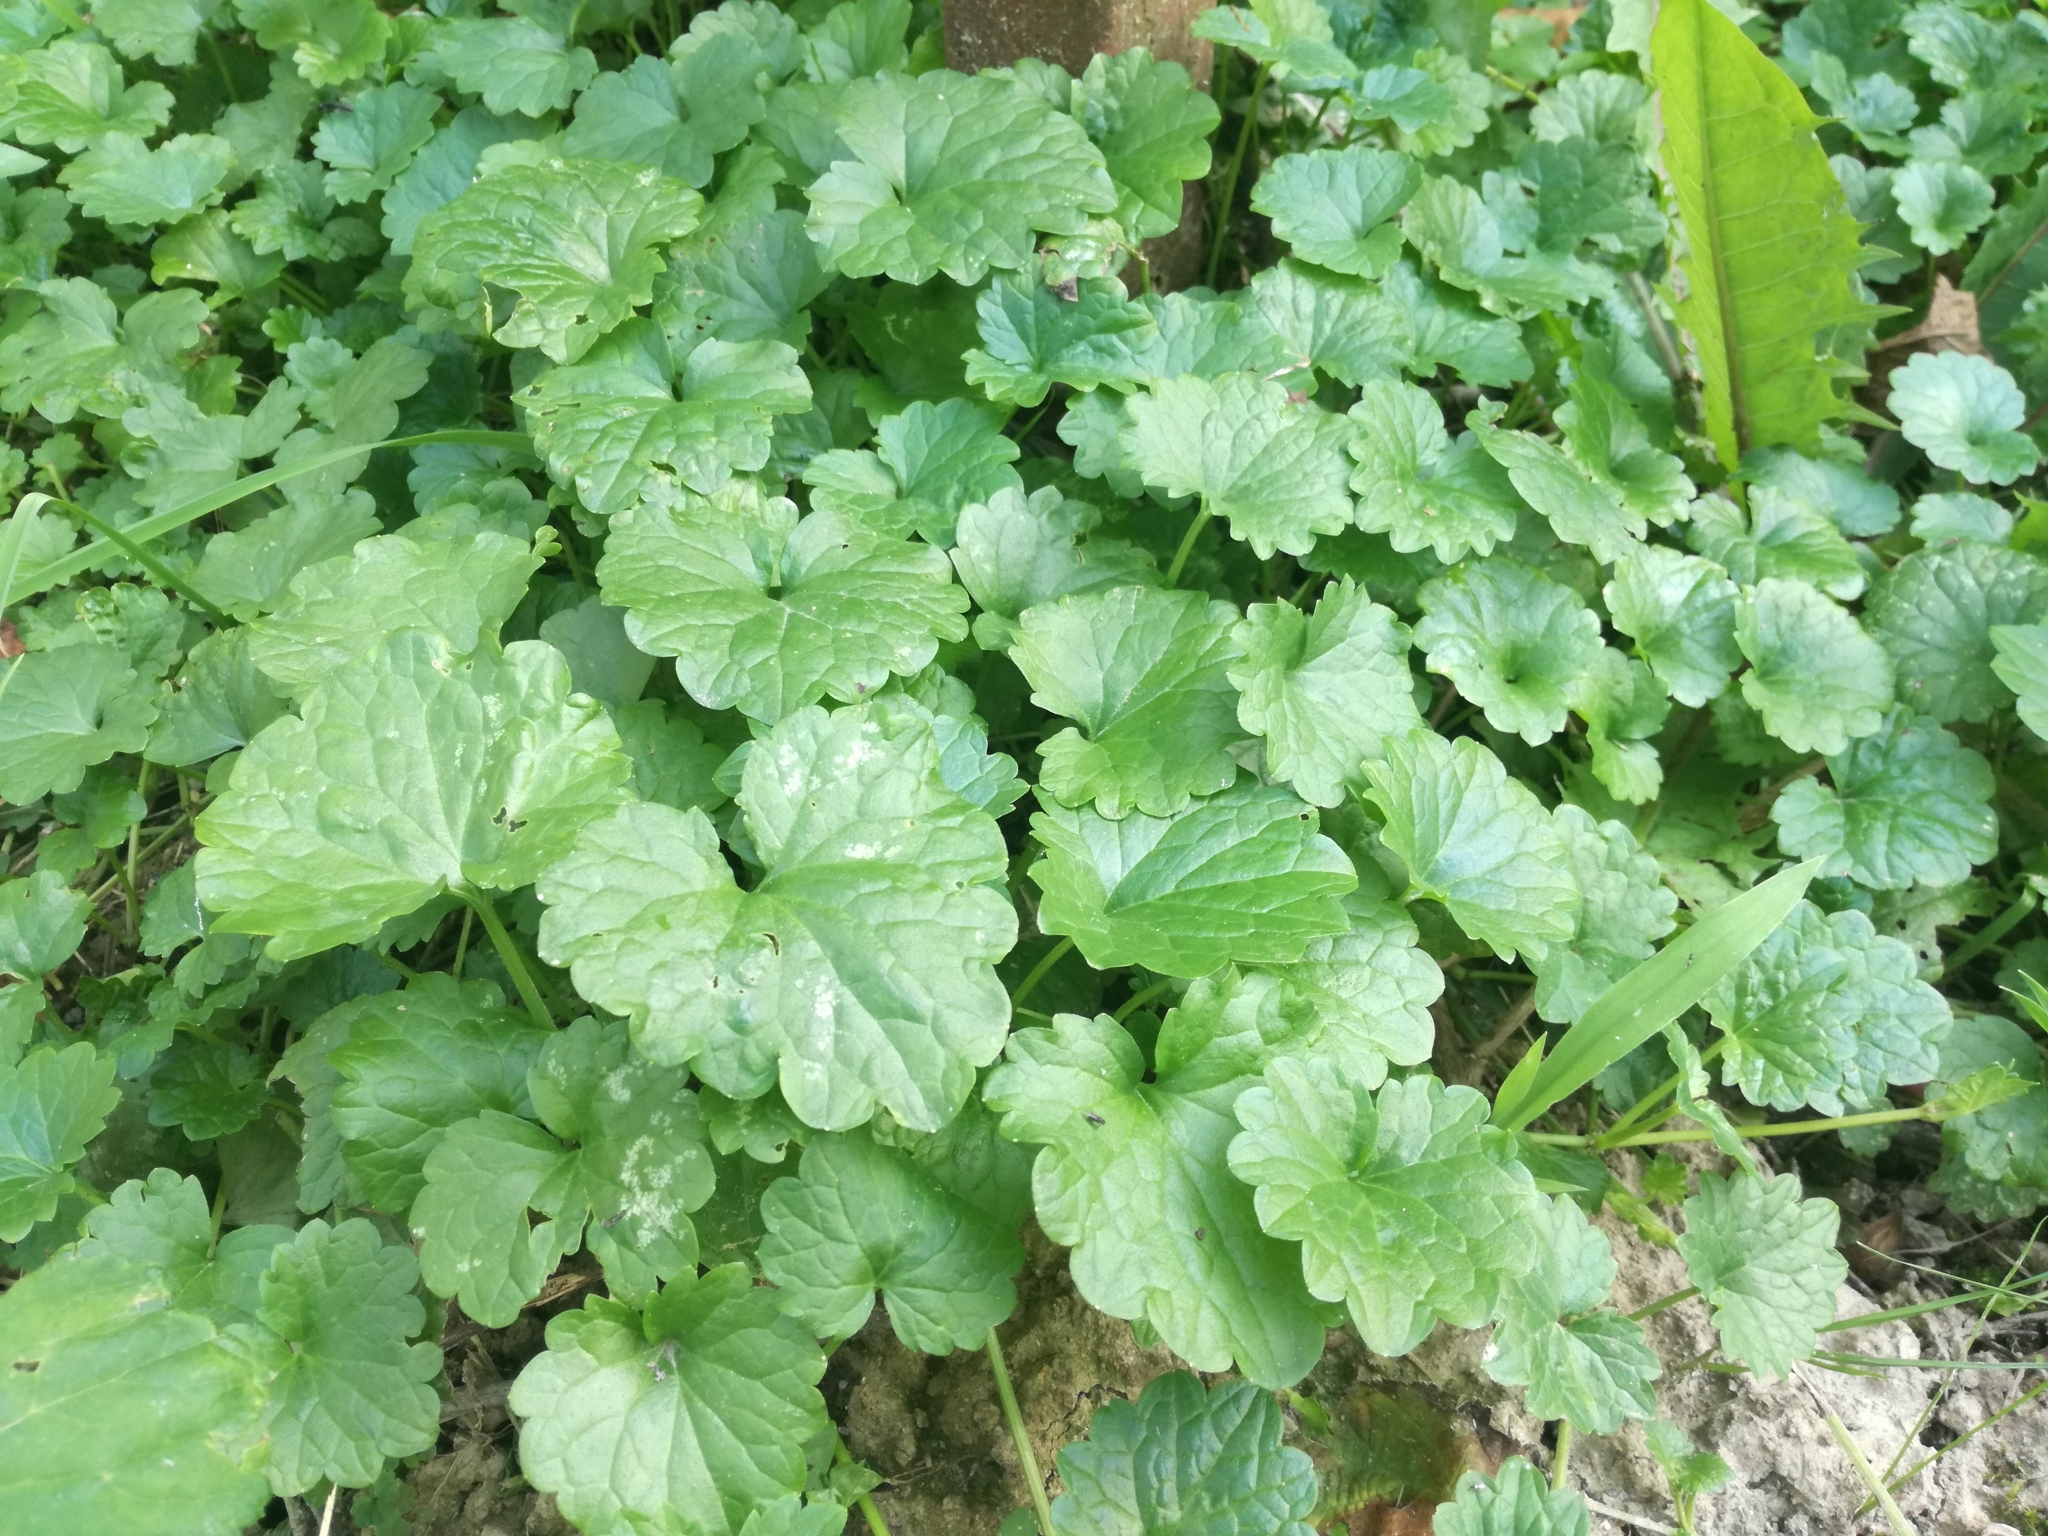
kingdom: Plantae
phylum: Tracheophyta
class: Magnoliopsida
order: Lamiales
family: Lamiaceae
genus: Glechoma
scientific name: Glechoma hederacea
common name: Ground ivy
